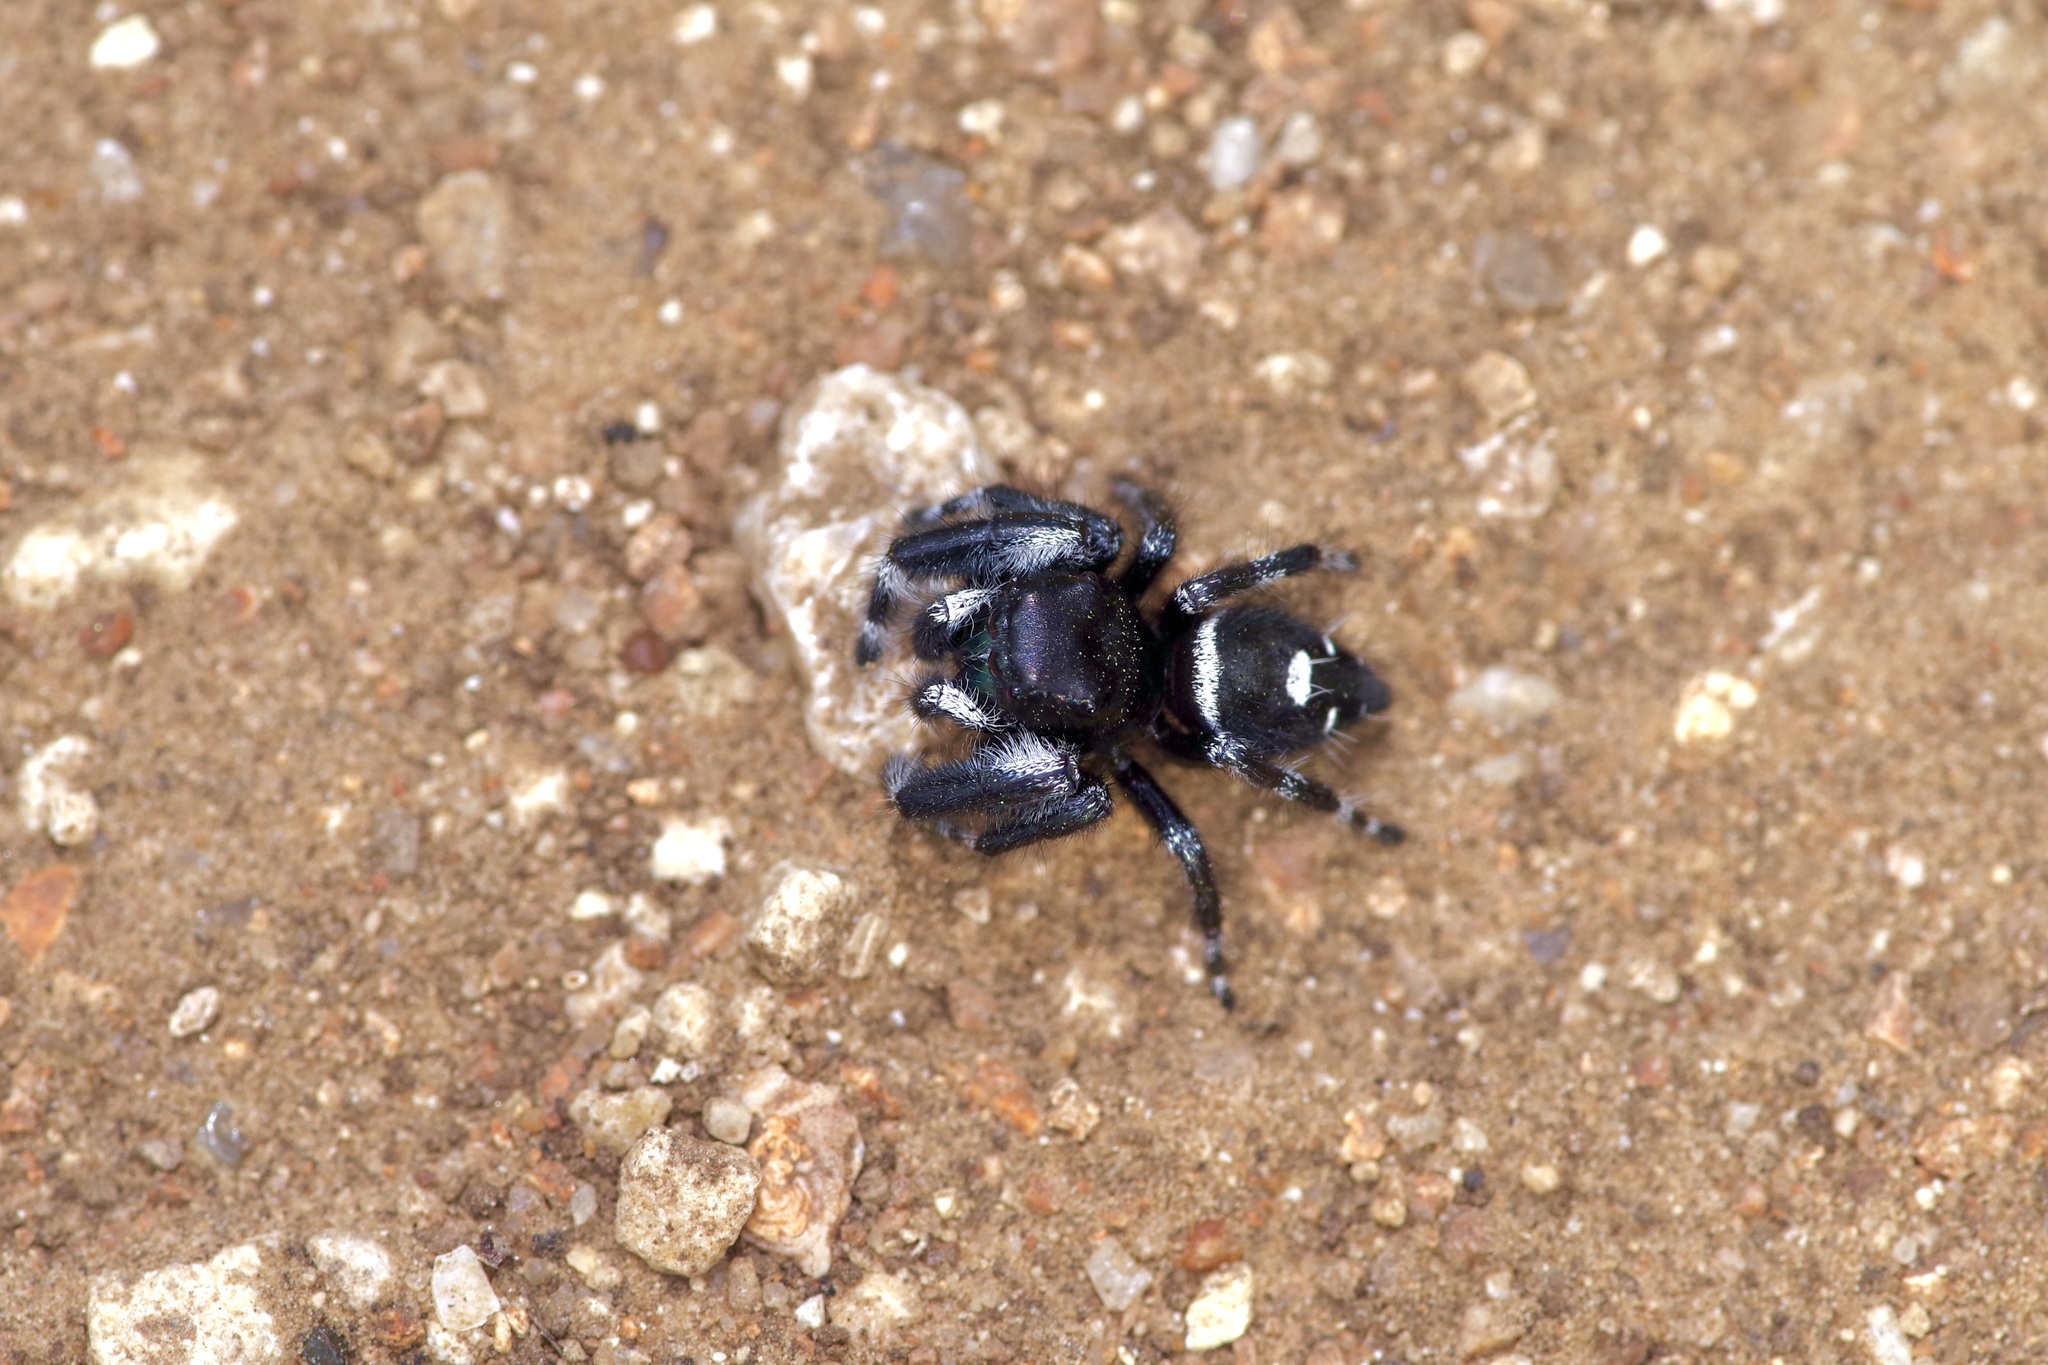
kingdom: Animalia
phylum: Arthropoda
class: Arachnida
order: Araneae
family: Salticidae
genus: Phidippus
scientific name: Phidippus audax
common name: Bold jumper
